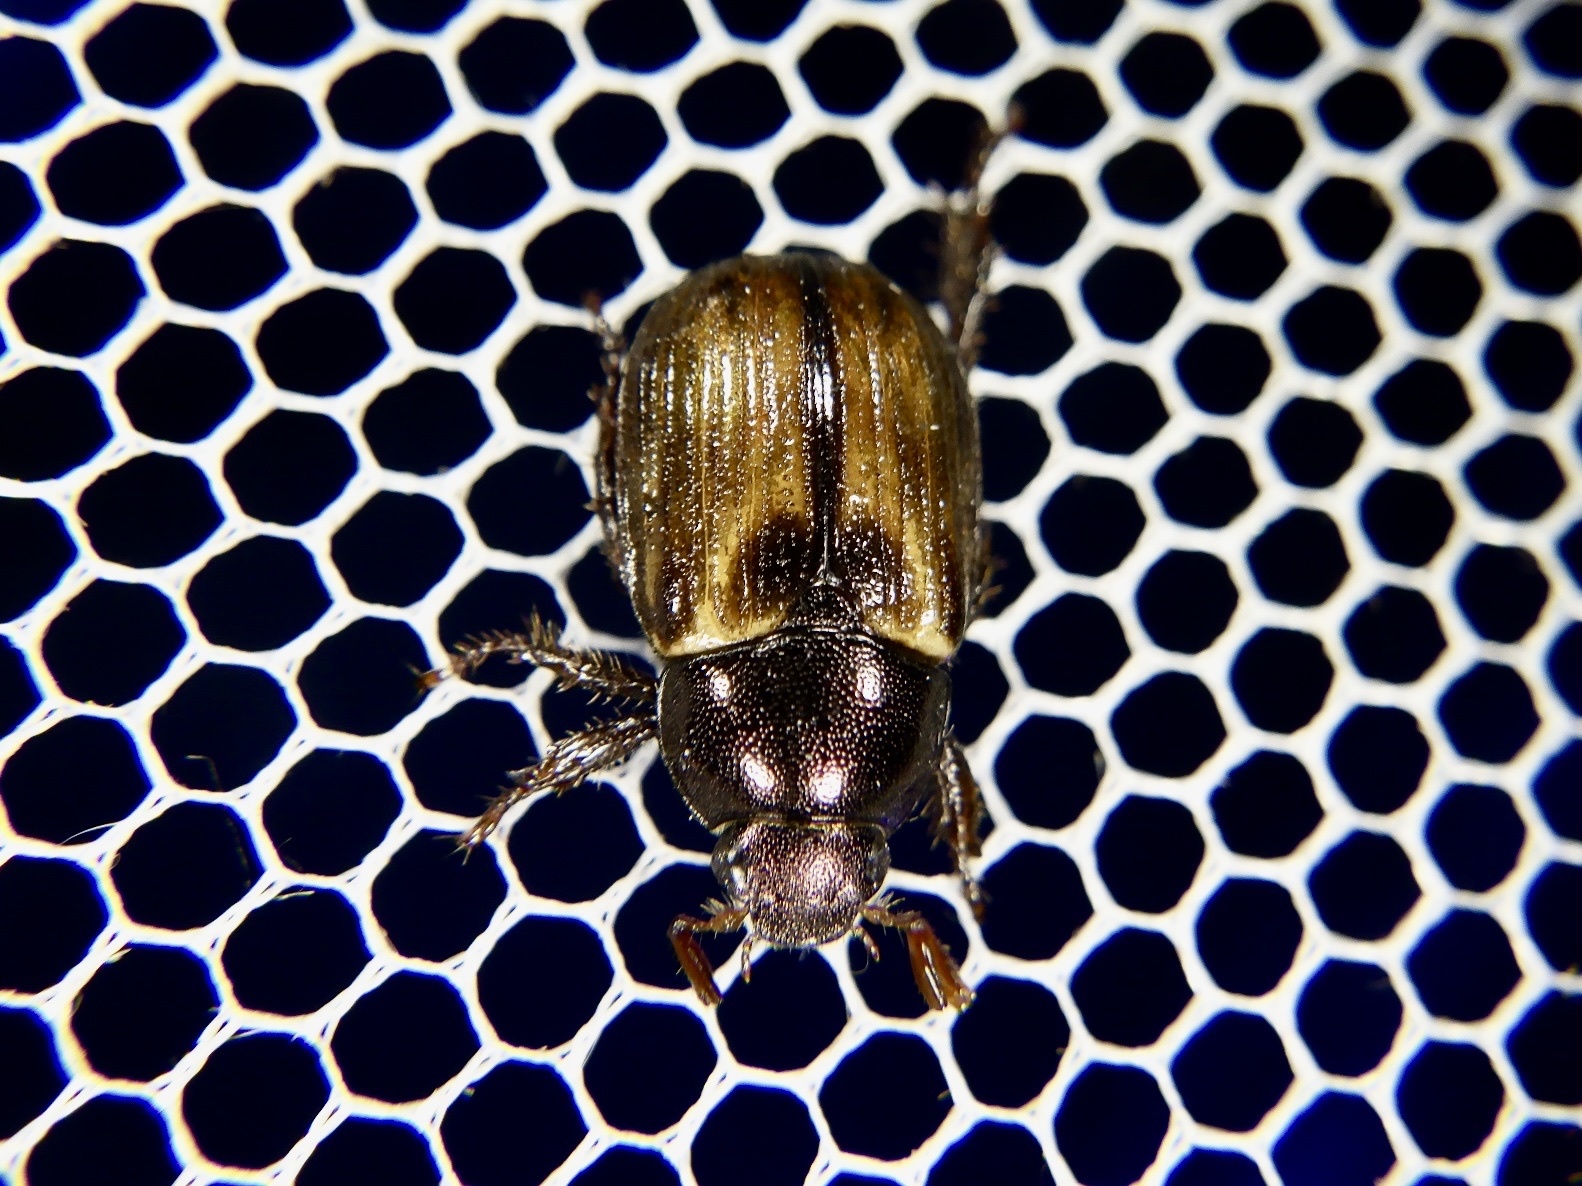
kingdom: Animalia
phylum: Arthropoda
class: Insecta
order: Coleoptera
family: Scarabaeidae
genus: Exomala
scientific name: Exomala orientalis
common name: Oriental beetle
